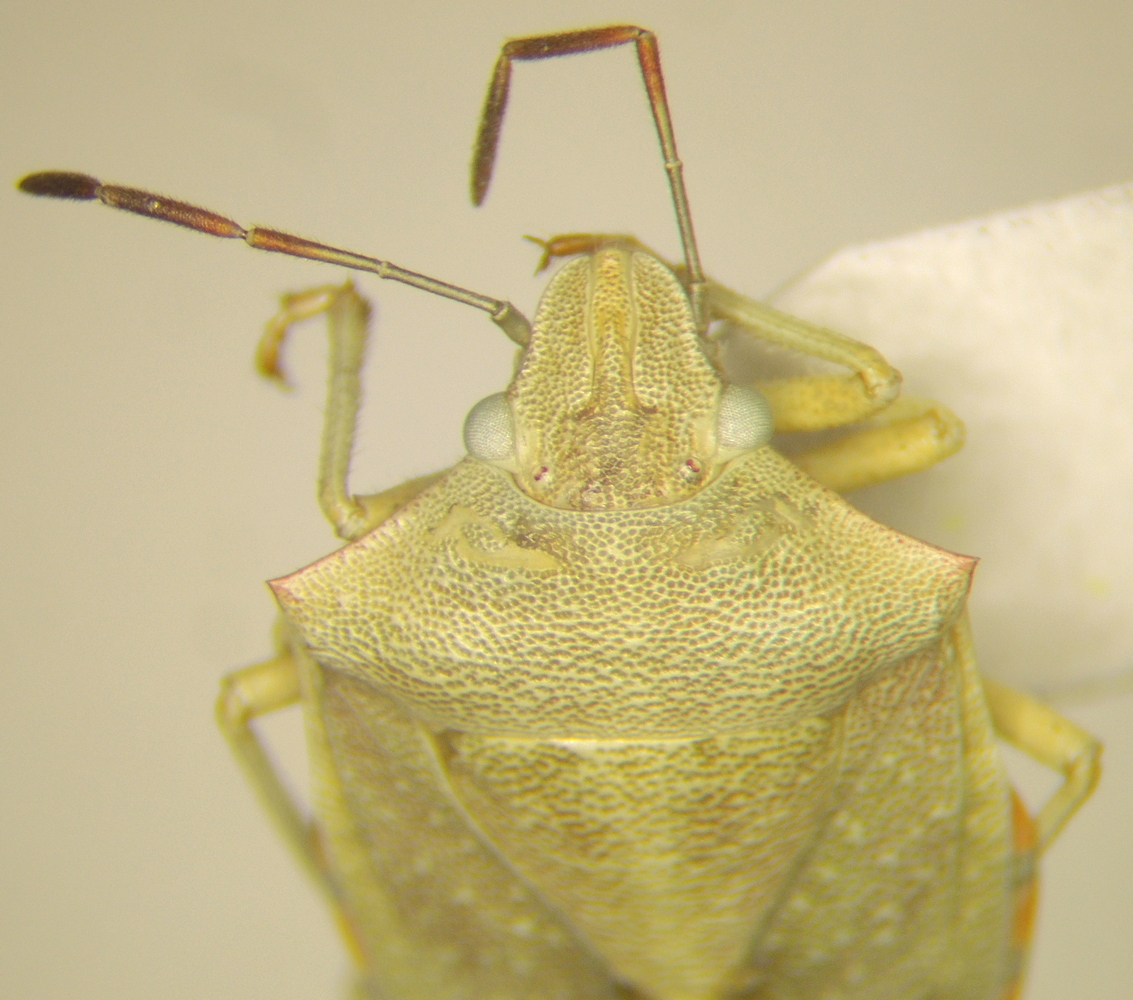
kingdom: Animalia
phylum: Arthropoda
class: Insecta
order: Hemiptera
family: Pentatomidae
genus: Thyanta
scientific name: Thyanta custator
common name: Stink bug
